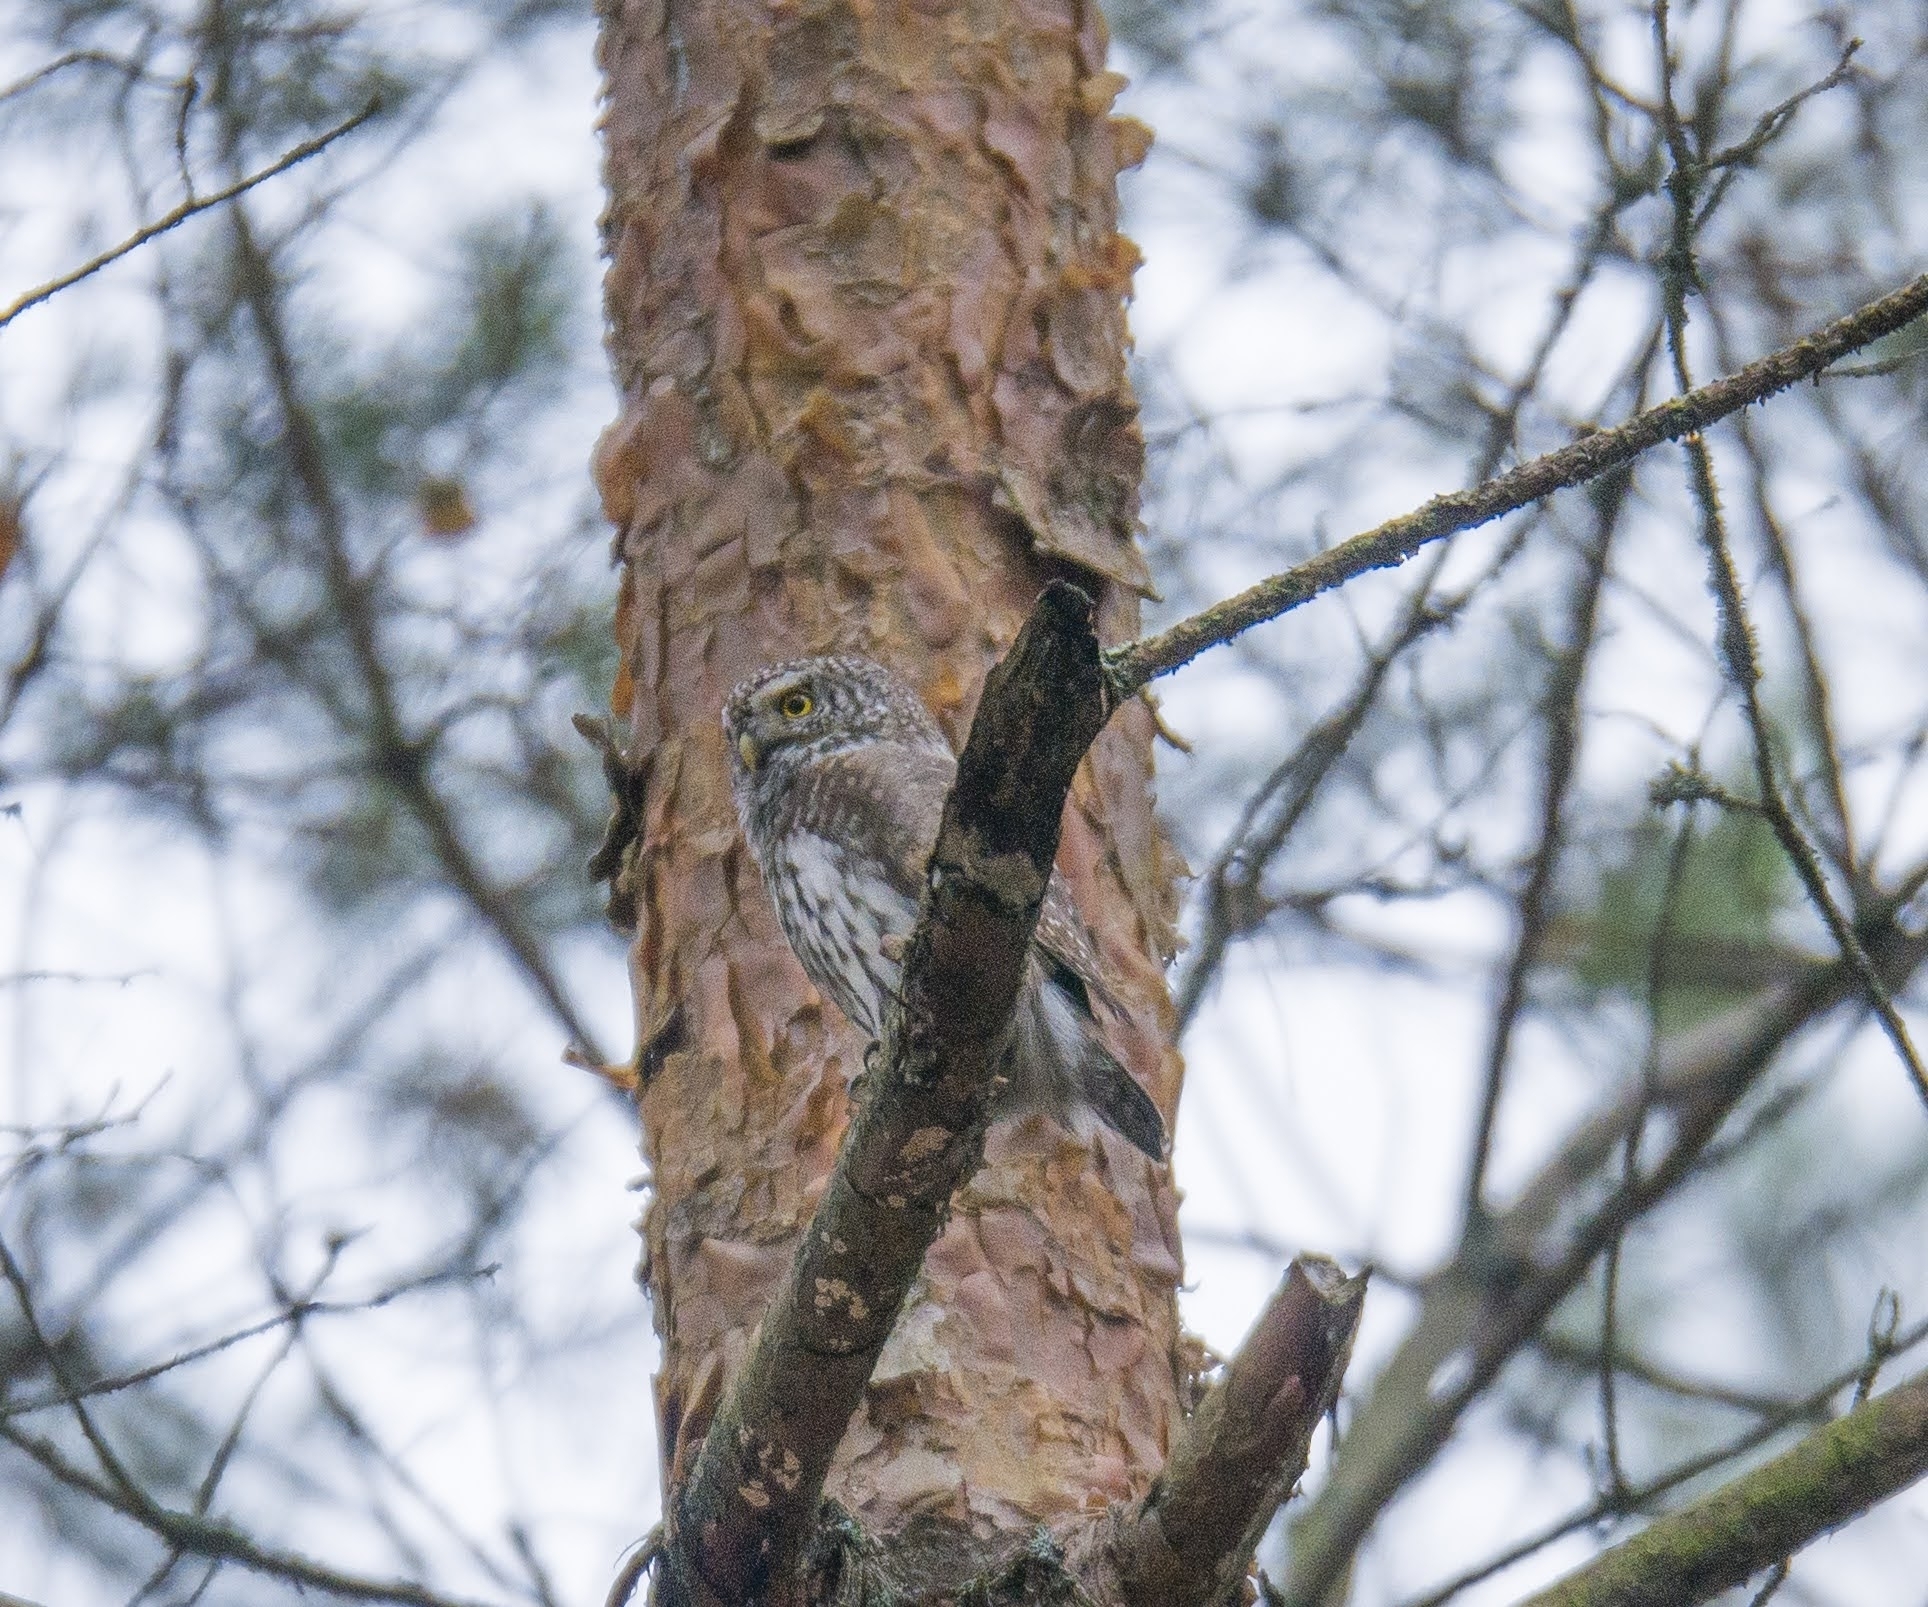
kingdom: Animalia
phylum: Chordata
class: Aves
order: Strigiformes
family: Strigidae
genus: Glaucidium
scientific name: Glaucidium passerinum
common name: Eurasian pygmy owl
